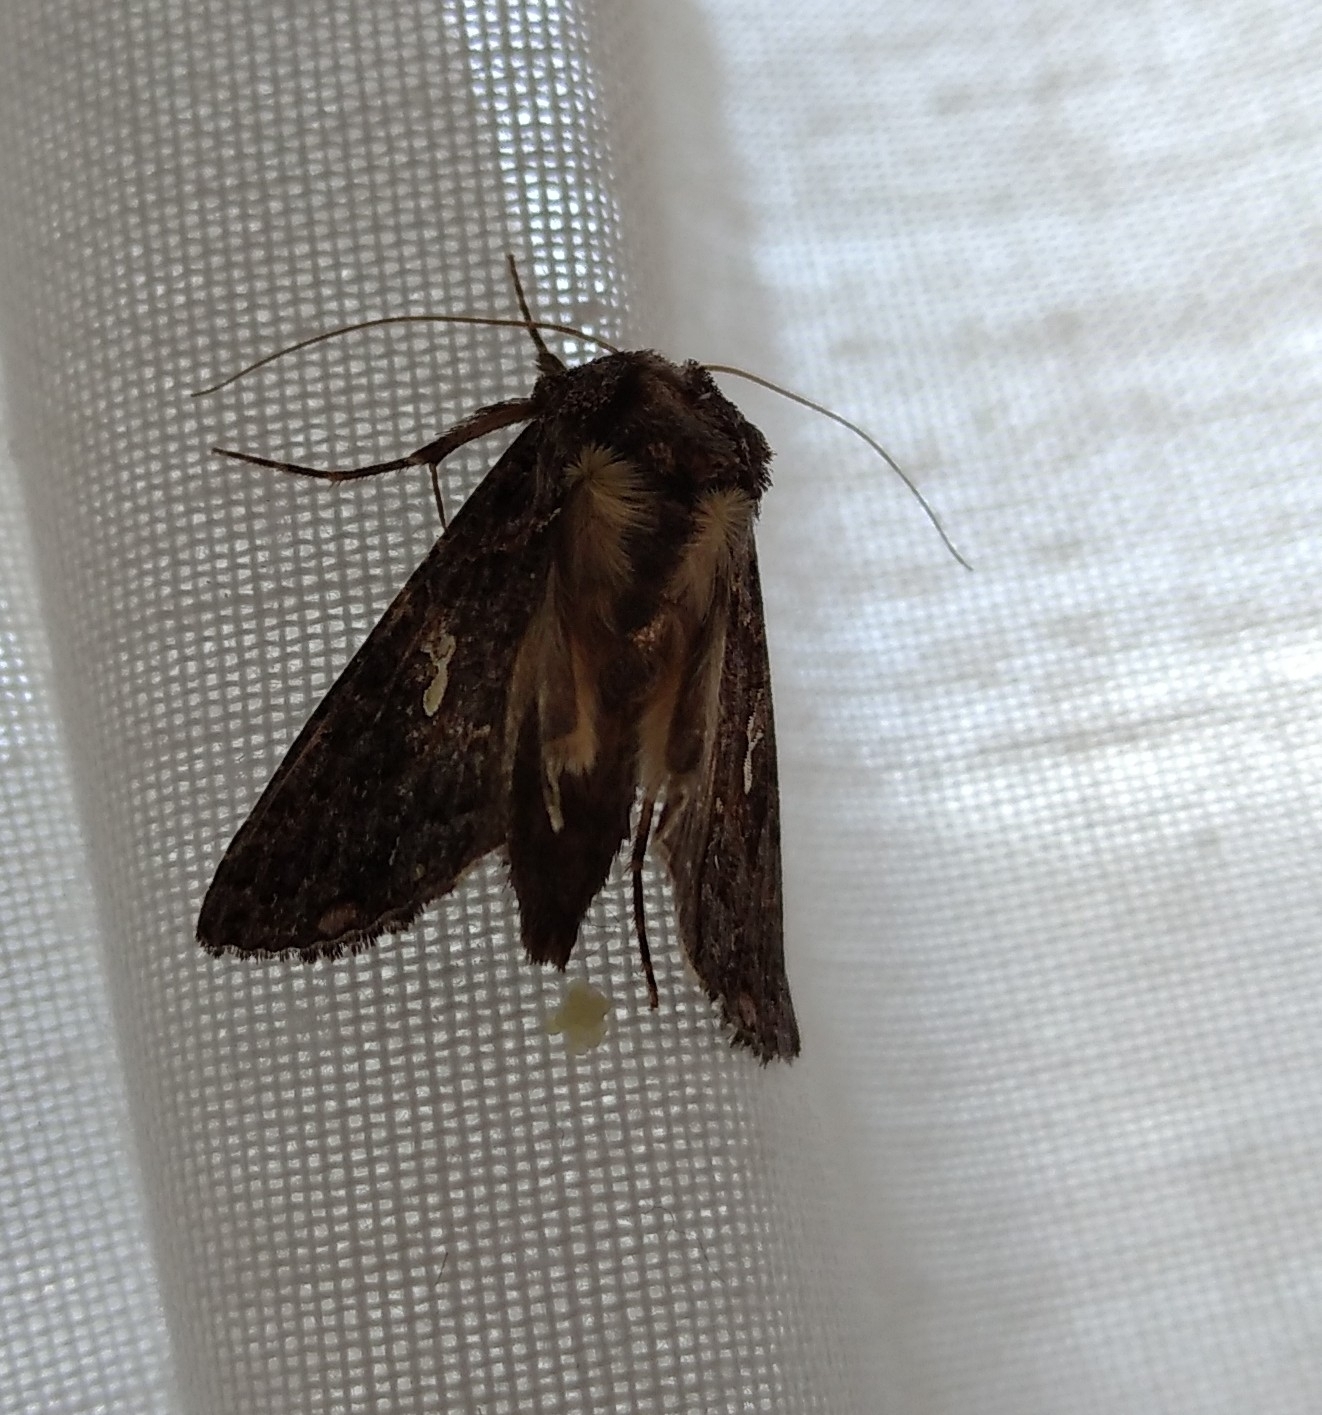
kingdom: Animalia
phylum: Arthropoda
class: Insecta
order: Lepidoptera
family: Noctuidae
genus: Ctenoplusia
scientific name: Ctenoplusia limbirena
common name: Scar bank gem
